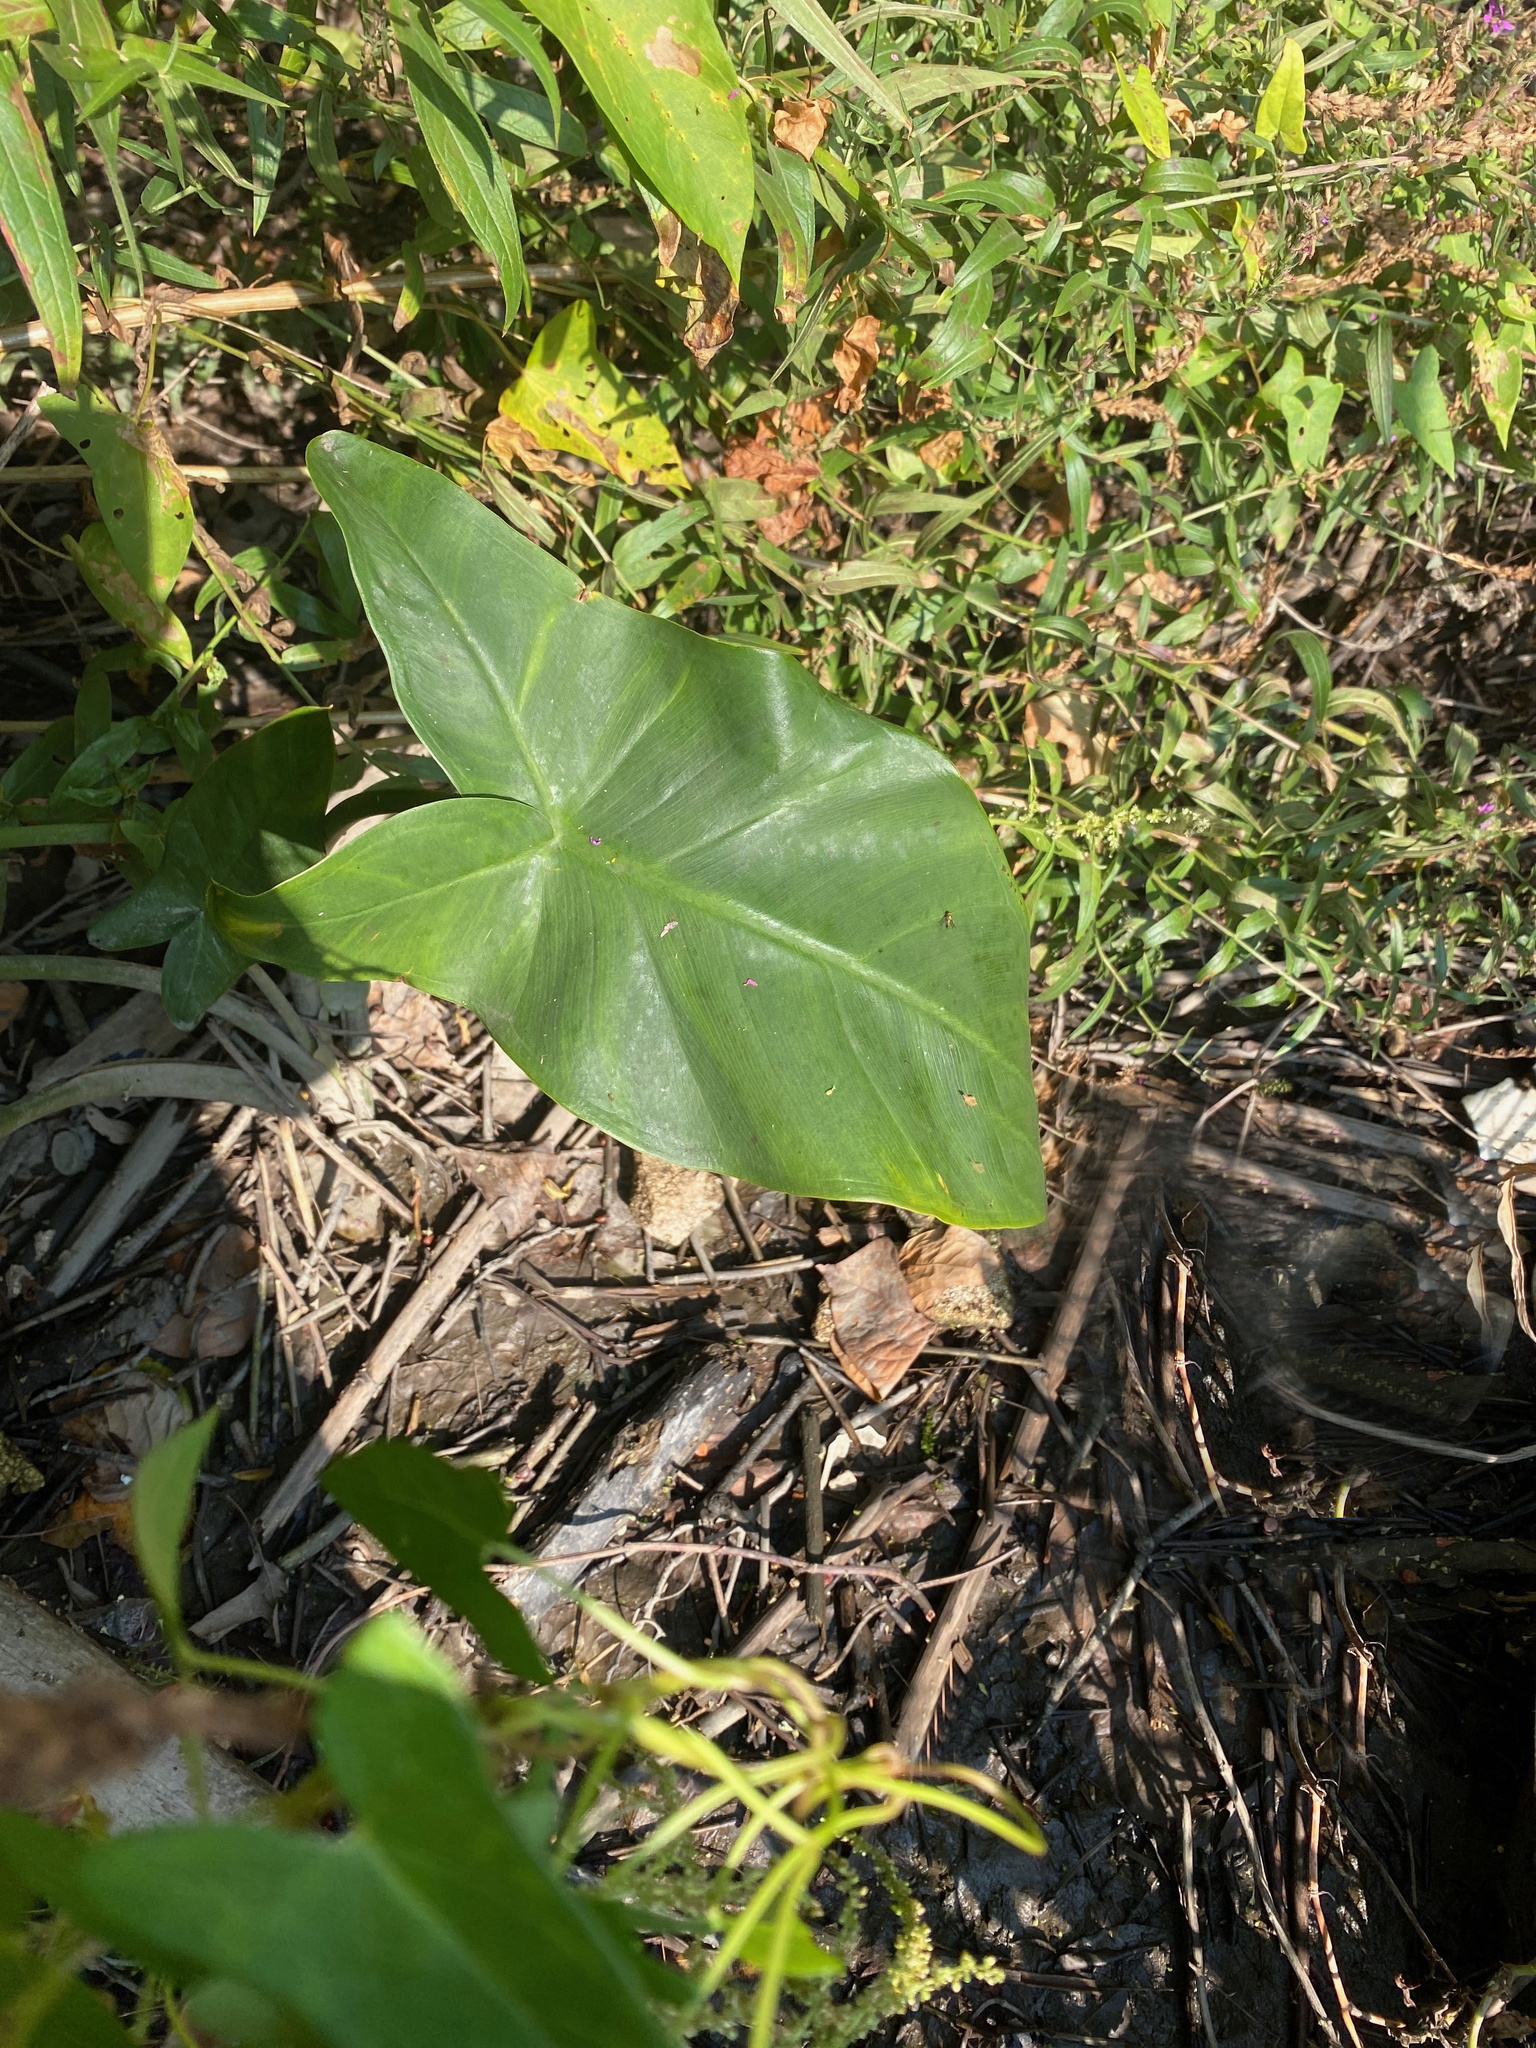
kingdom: Plantae
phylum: Tracheophyta
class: Liliopsida
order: Alismatales
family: Araceae
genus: Peltandra
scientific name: Peltandra virginica
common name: Arrow arum
